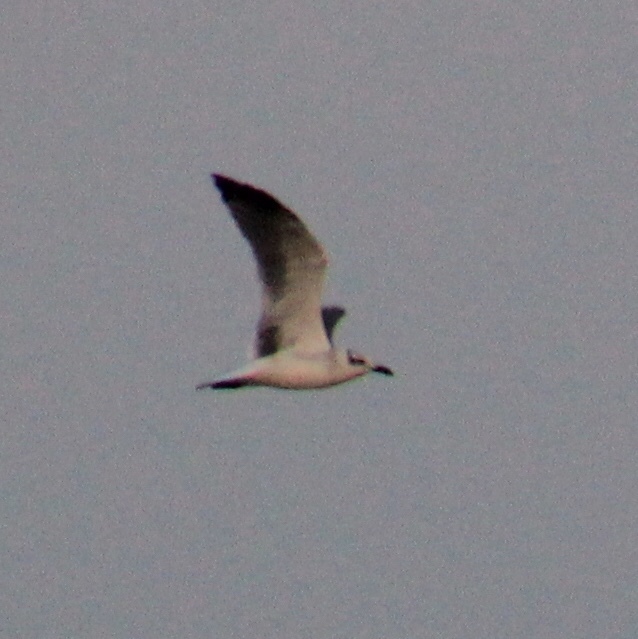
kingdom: Animalia
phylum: Chordata
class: Aves
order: Charadriiformes
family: Laridae
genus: Leucophaeus
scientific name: Leucophaeus atricilla
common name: Laughing gull
